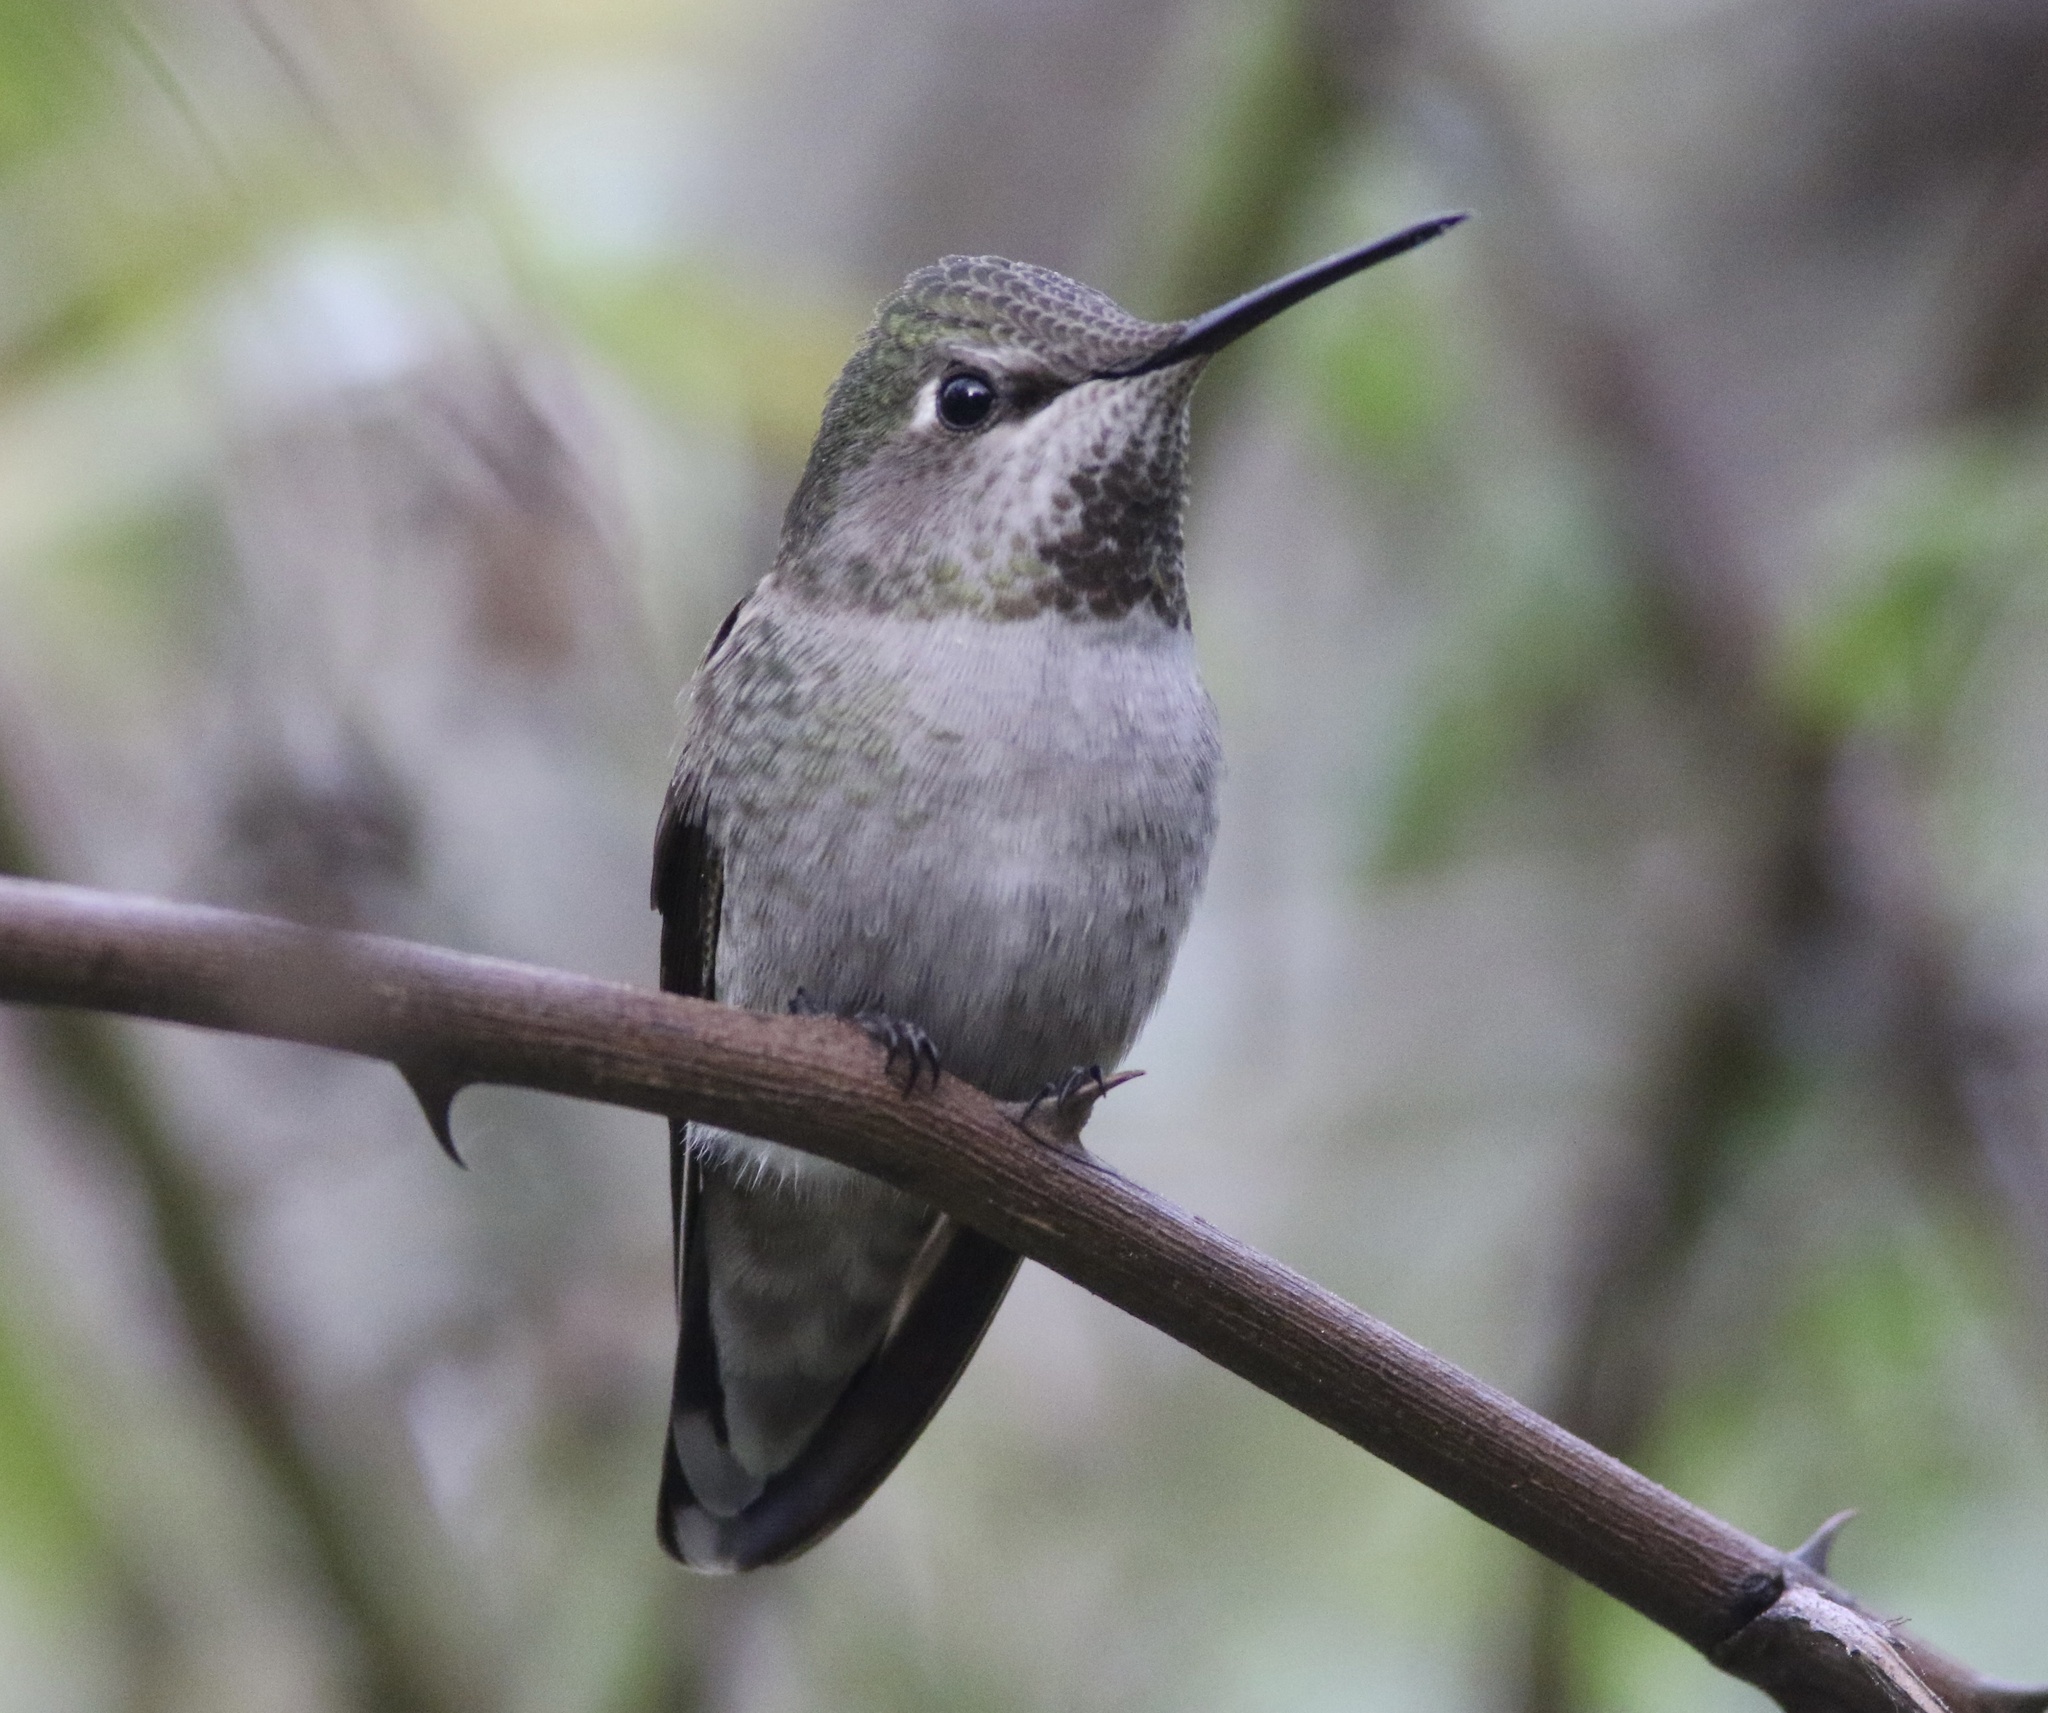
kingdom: Animalia
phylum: Chordata
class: Aves
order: Apodiformes
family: Trochilidae
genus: Calypte
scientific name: Calypte anna
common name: Anna's hummingbird
